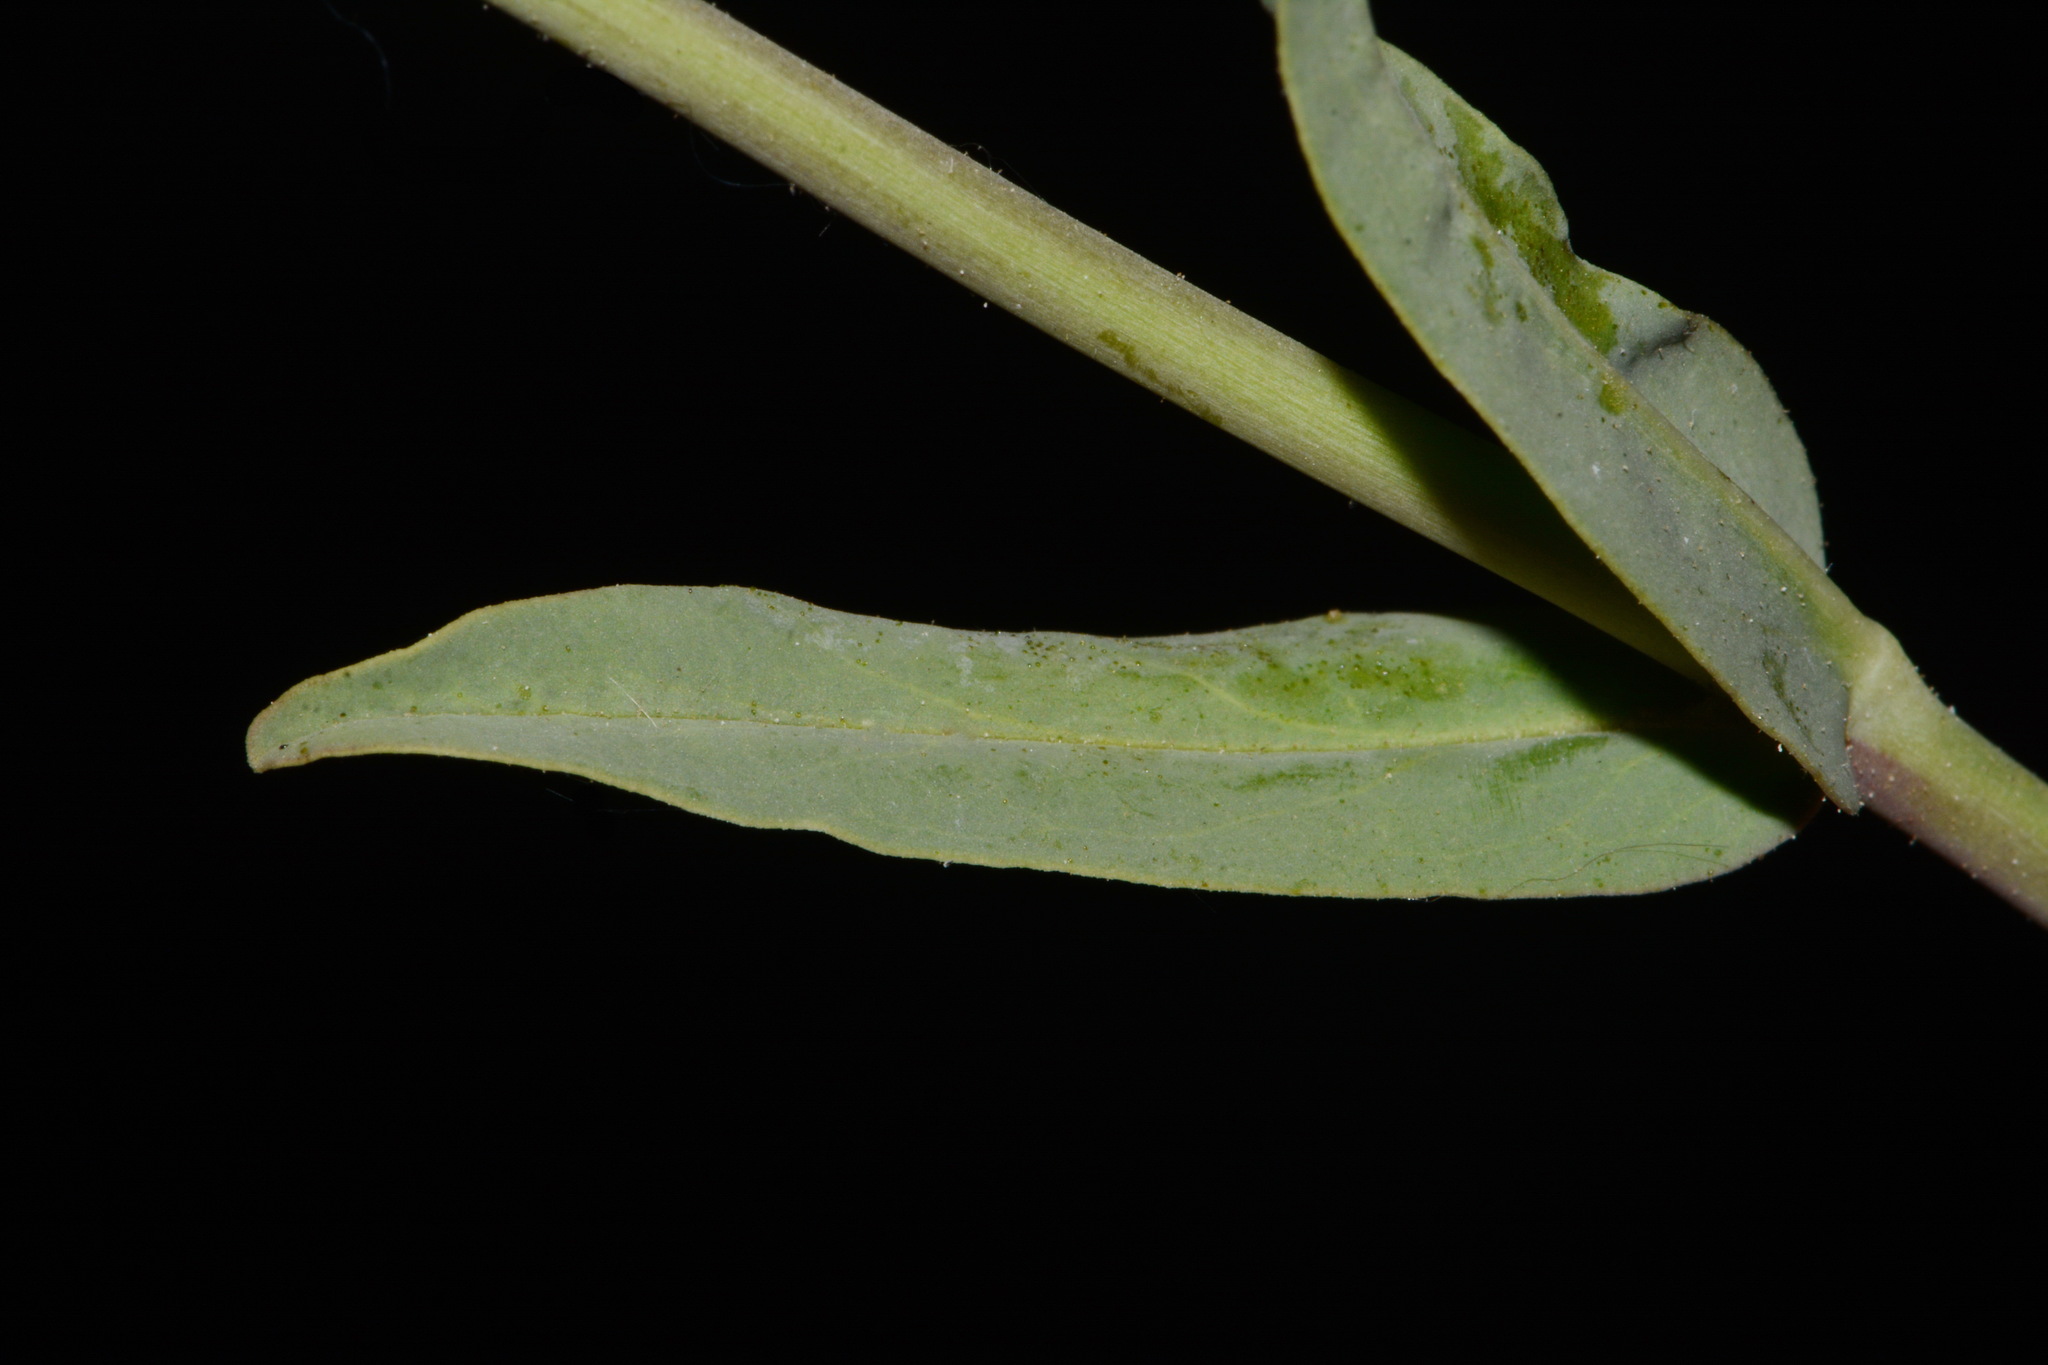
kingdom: Plantae
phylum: Tracheophyta
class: Magnoliopsida
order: Lamiales
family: Plantaginaceae
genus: Penstemon
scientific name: Penstemon leiophyllus
